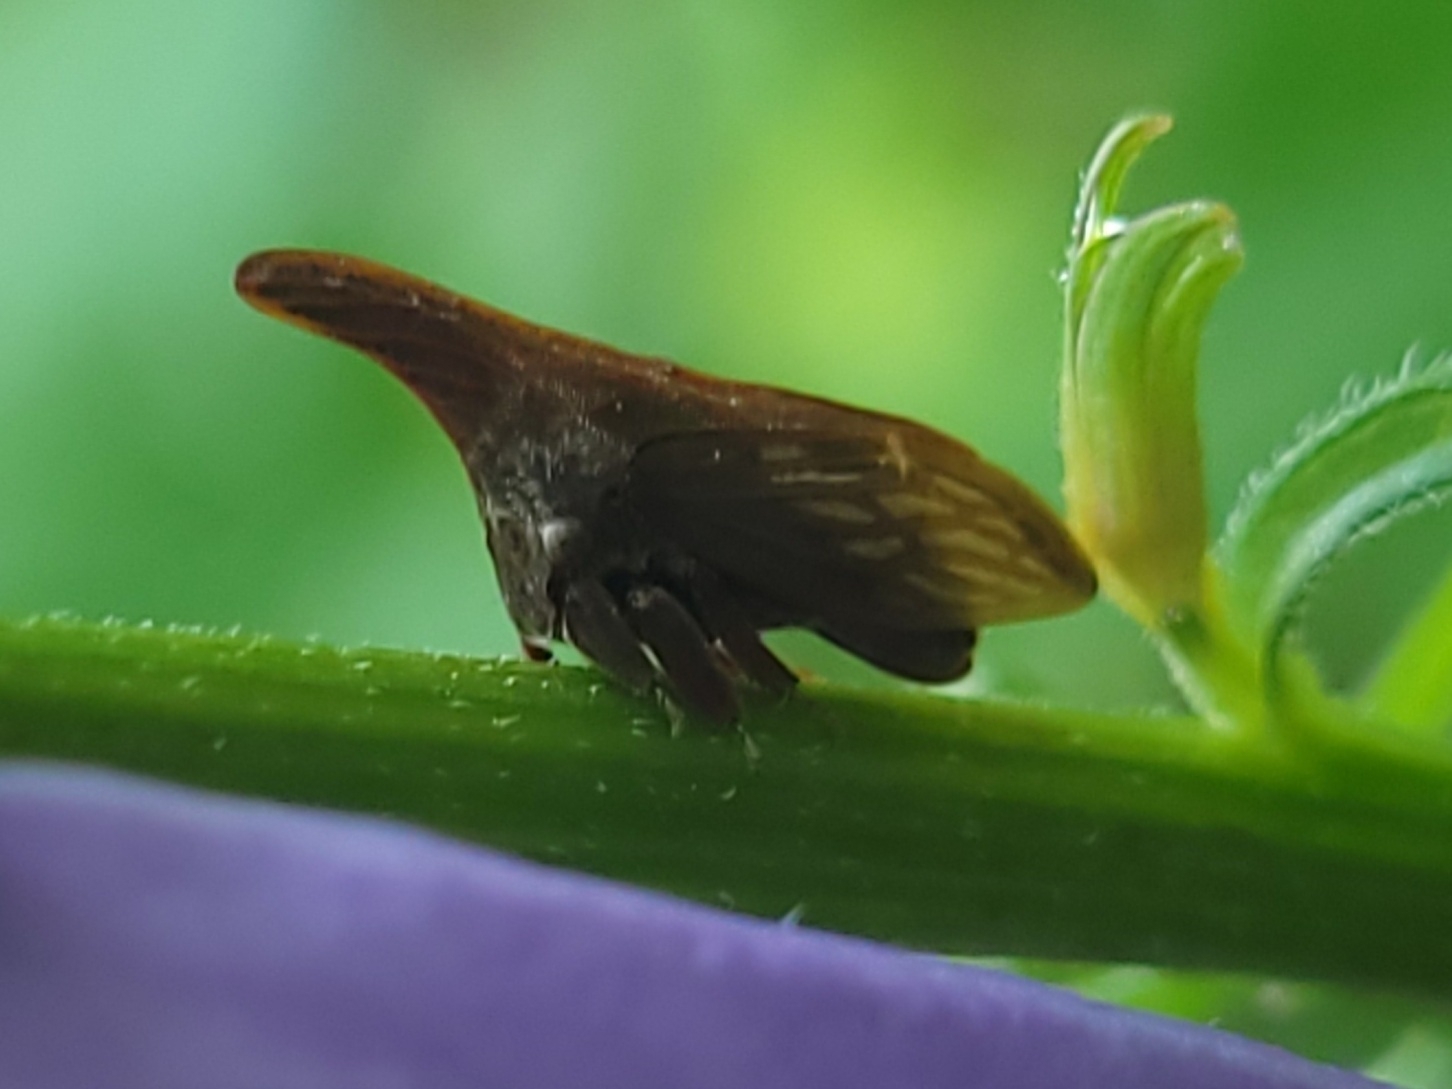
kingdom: Animalia
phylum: Arthropoda
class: Insecta
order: Hemiptera
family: Membracidae
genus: Enchenopa
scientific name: Enchenopa latipes
